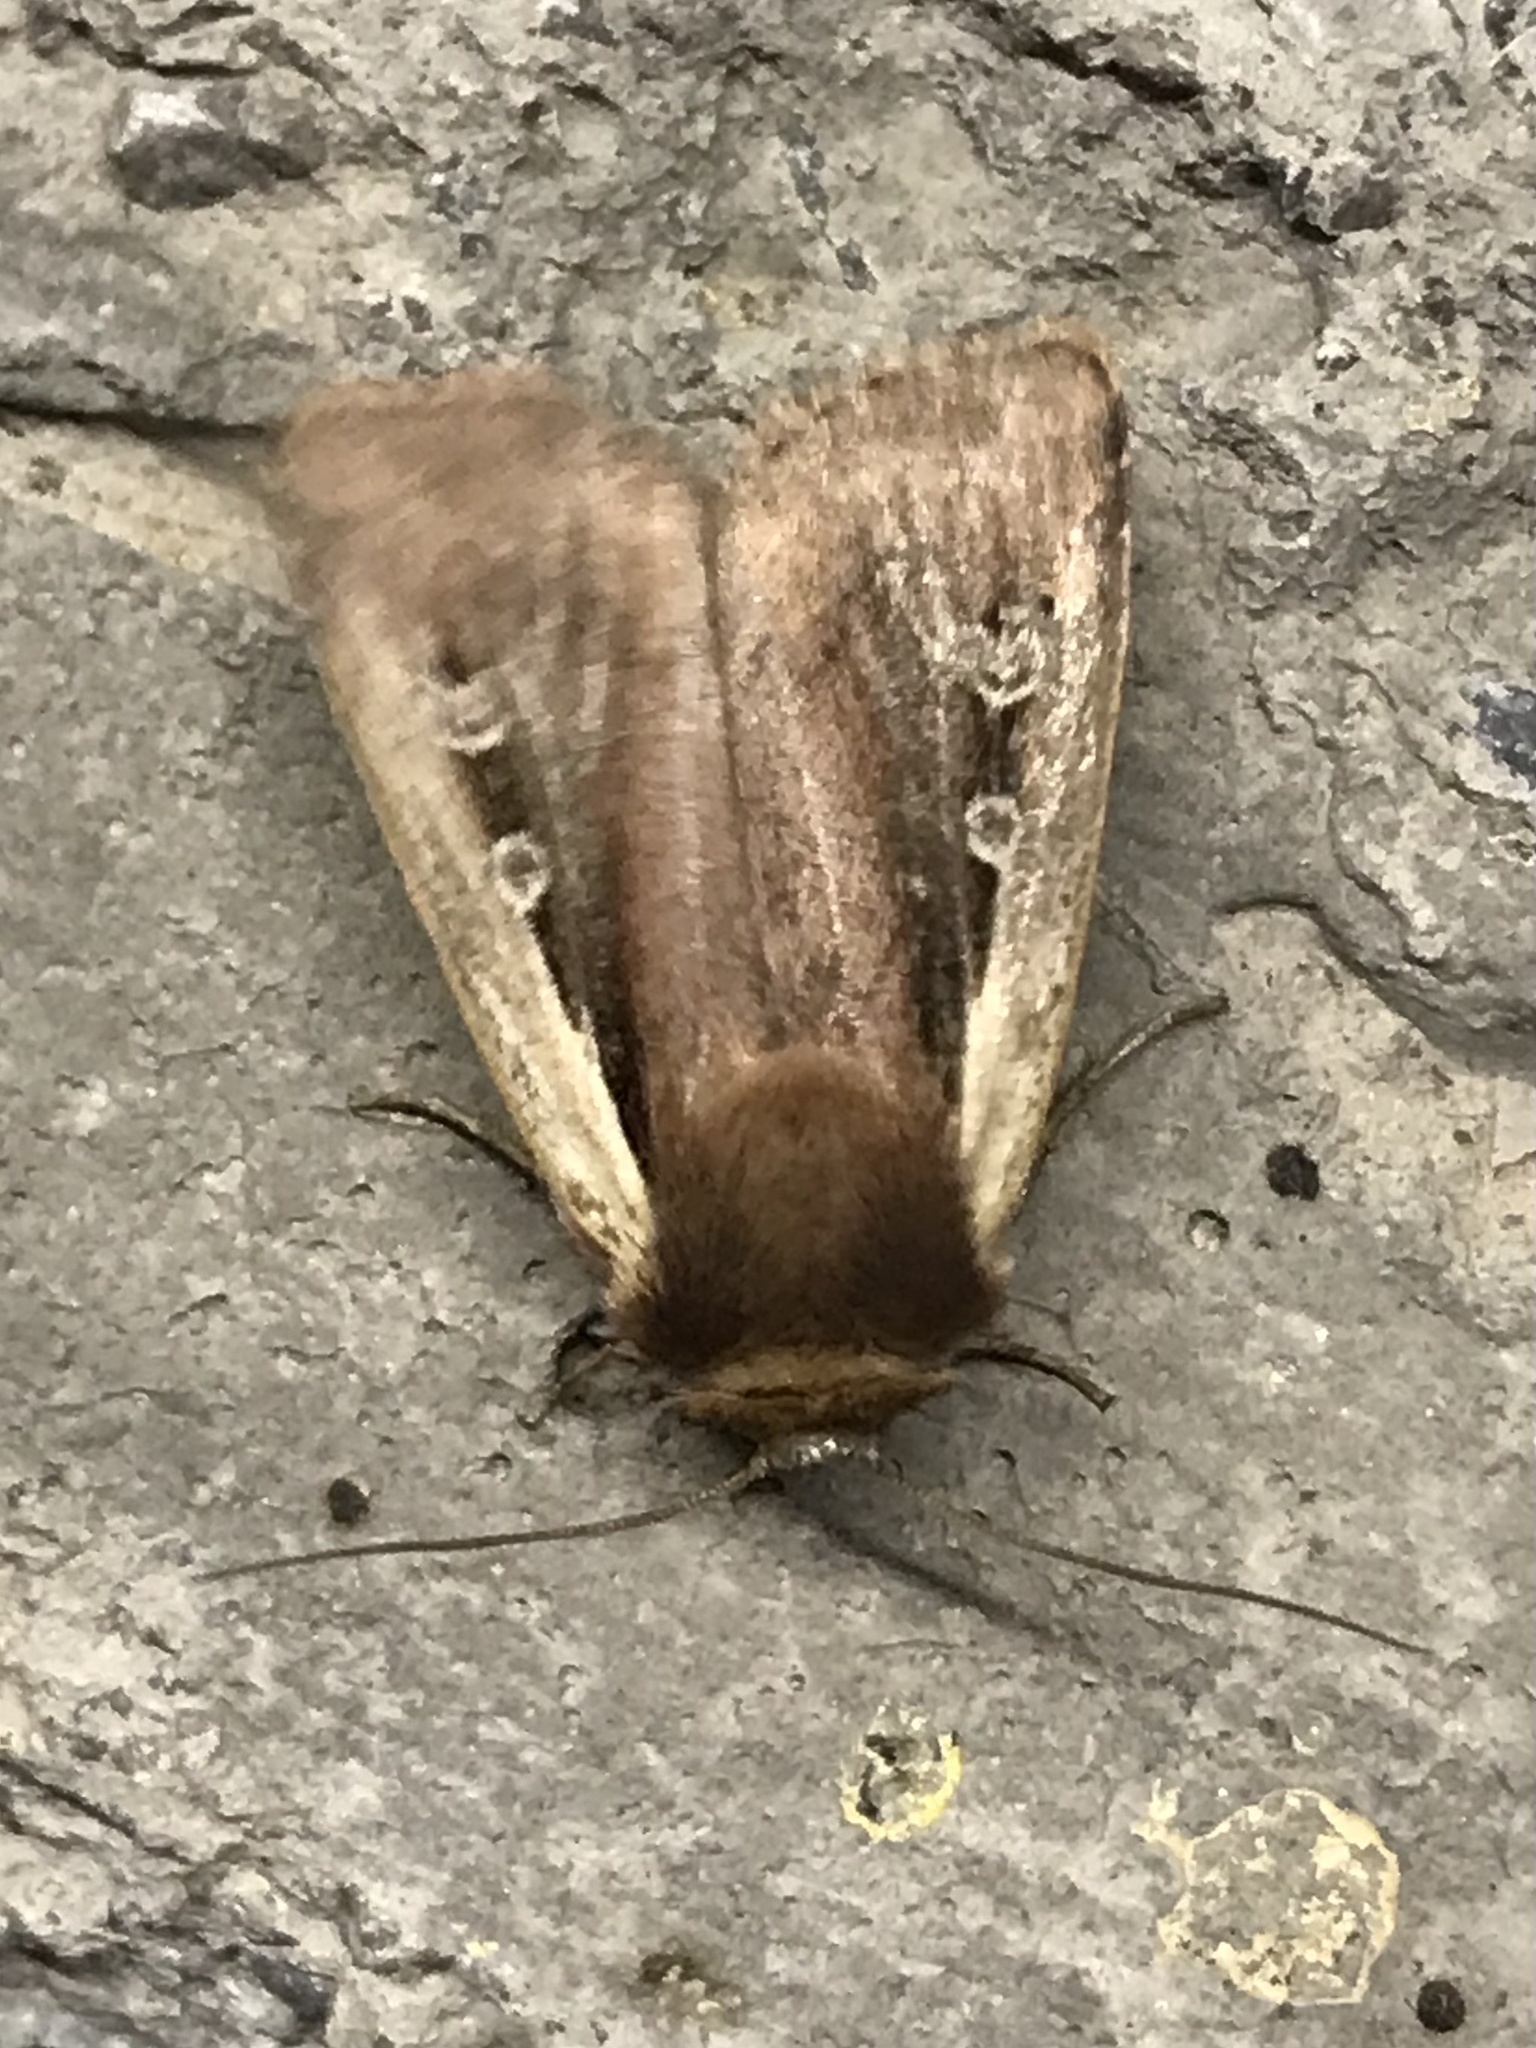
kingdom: Animalia
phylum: Arthropoda
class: Insecta
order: Lepidoptera
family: Noctuidae
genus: Ochropleura
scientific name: Ochropleura plecta
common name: Flame shoulder
